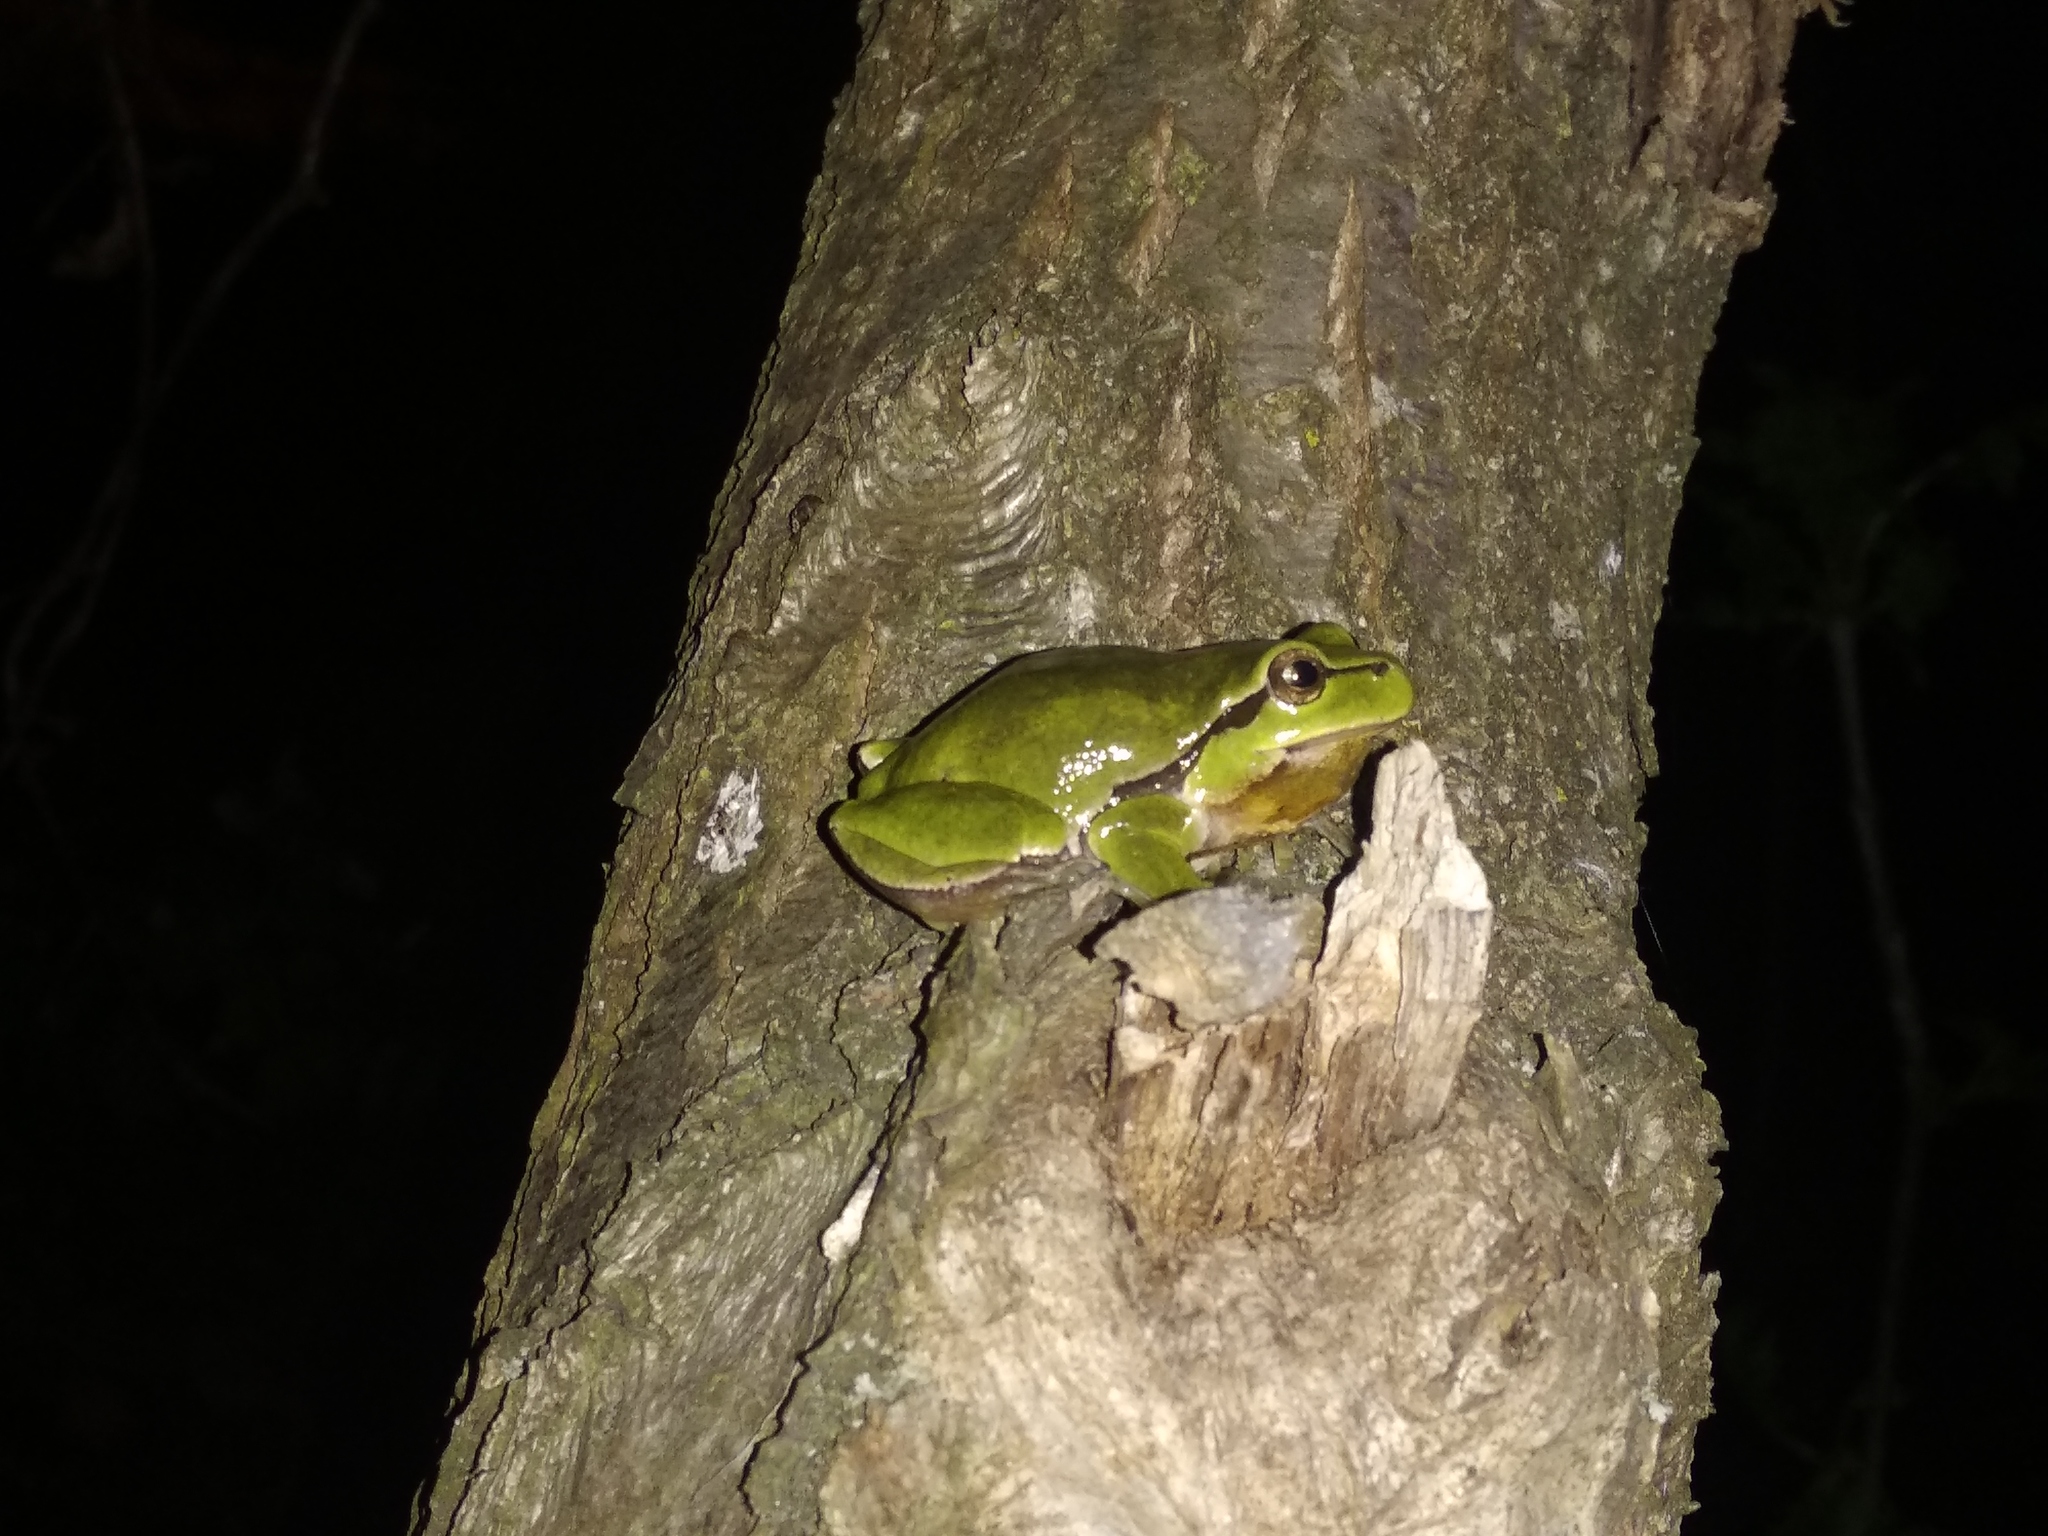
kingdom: Animalia
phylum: Chordata
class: Amphibia
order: Anura
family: Hylidae
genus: Hyla
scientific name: Hyla arborea
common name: Common tree frog
